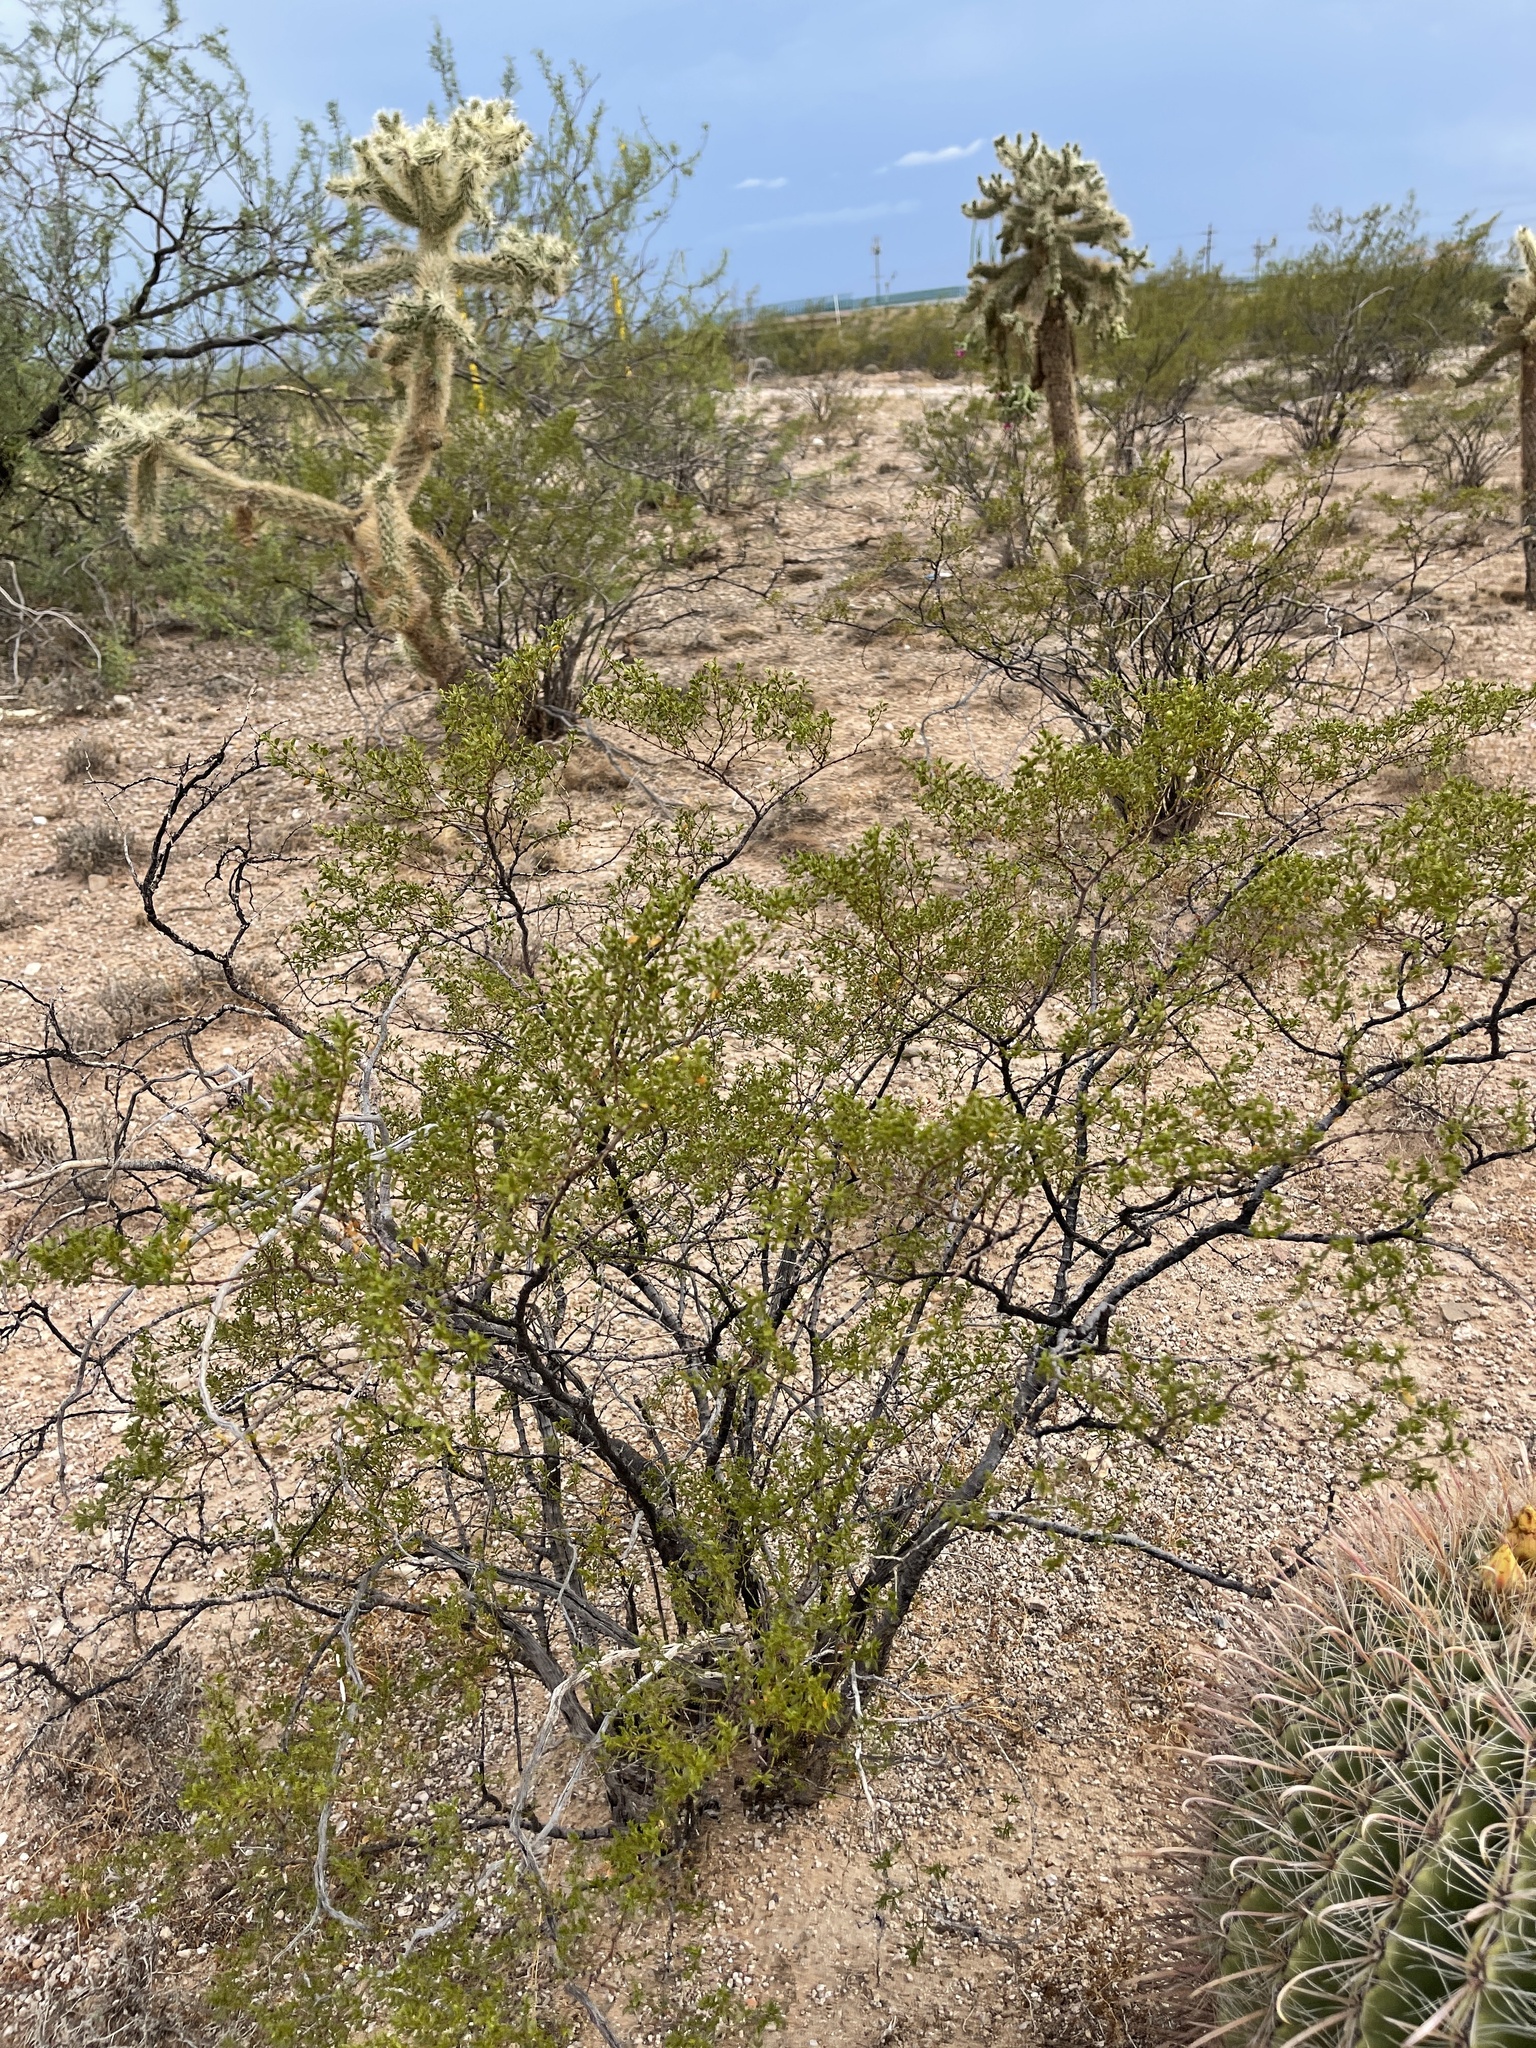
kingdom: Plantae
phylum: Tracheophyta
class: Magnoliopsida
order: Zygophyllales
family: Zygophyllaceae
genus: Larrea
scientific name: Larrea tridentata
